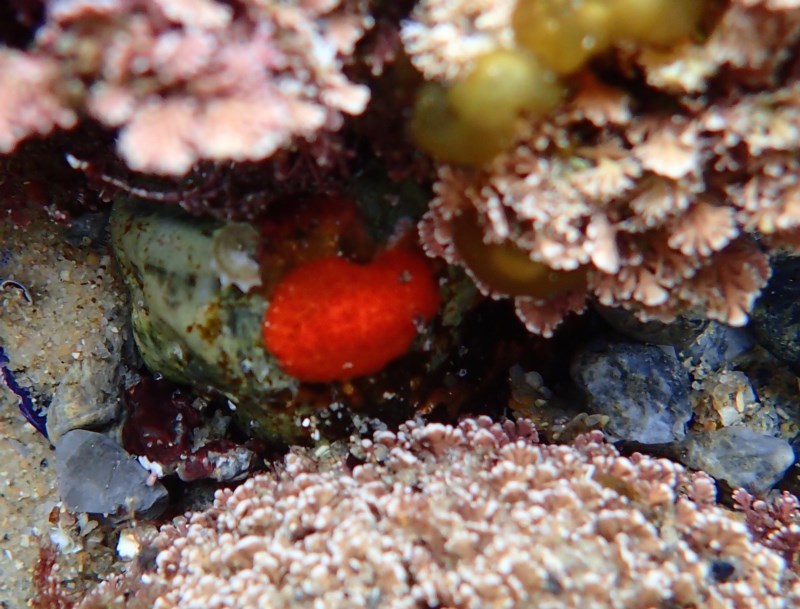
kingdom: Animalia
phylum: Mollusca
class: Gastropoda
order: Nudibranchia
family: Discodorididae
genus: Rostanga
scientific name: Rostanga arbutus
